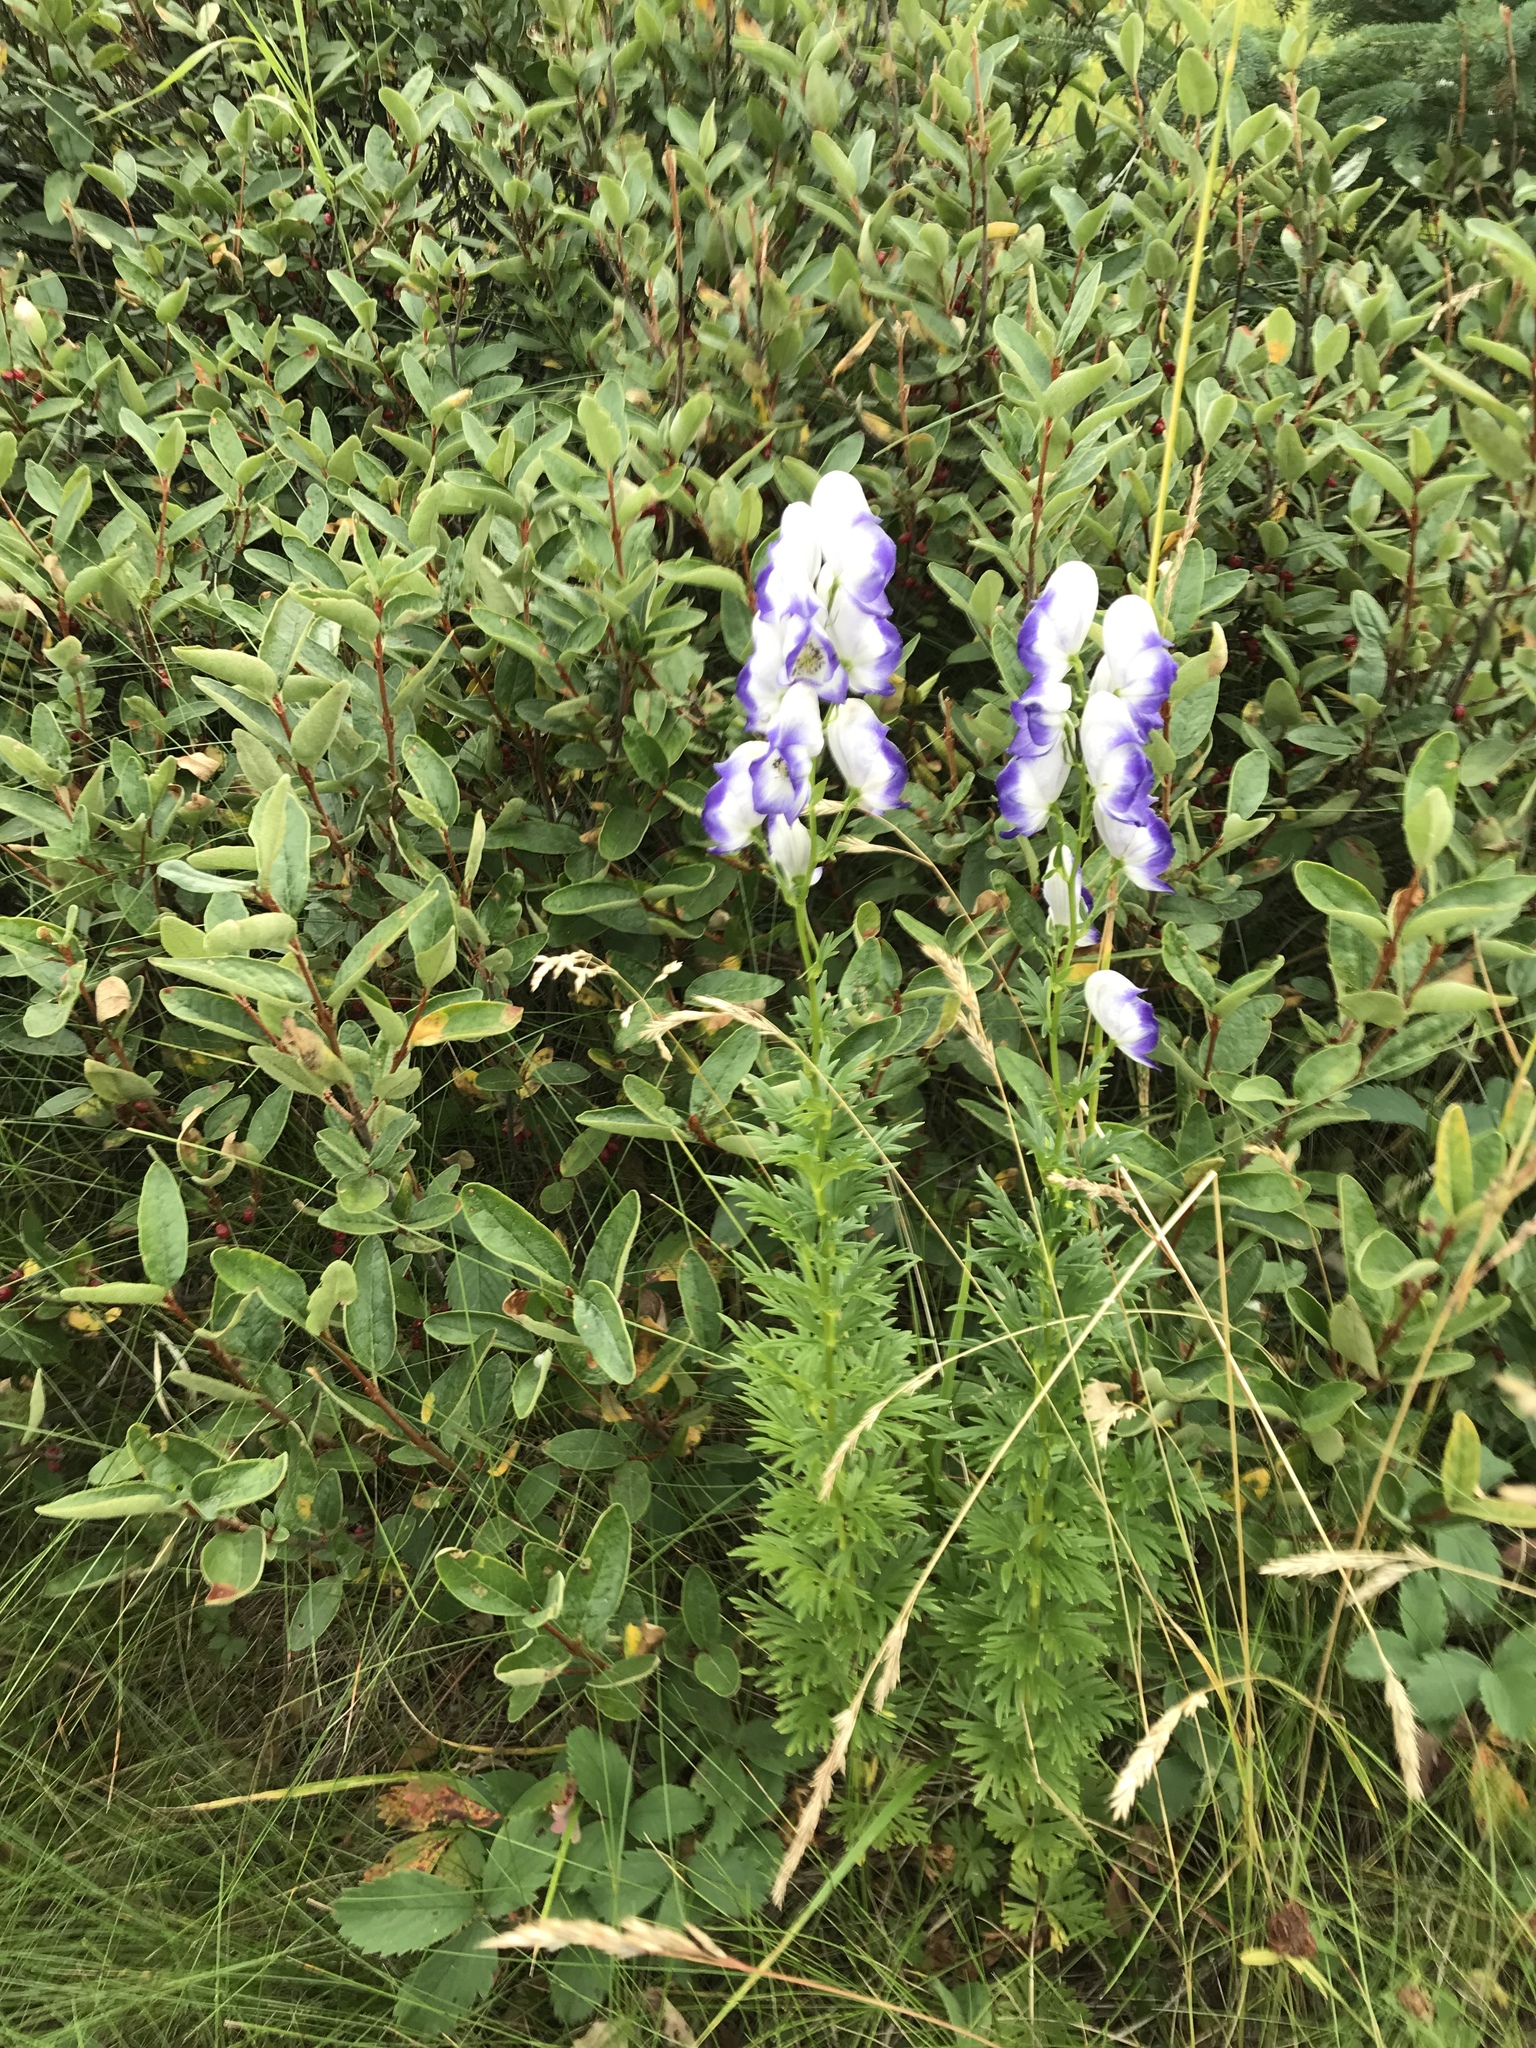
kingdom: Plantae
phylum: Tracheophyta
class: Magnoliopsida
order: Ranunculales
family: Ranunculaceae
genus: Aconitum
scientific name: Aconitum cammarum
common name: Hybrid monk's-hood
